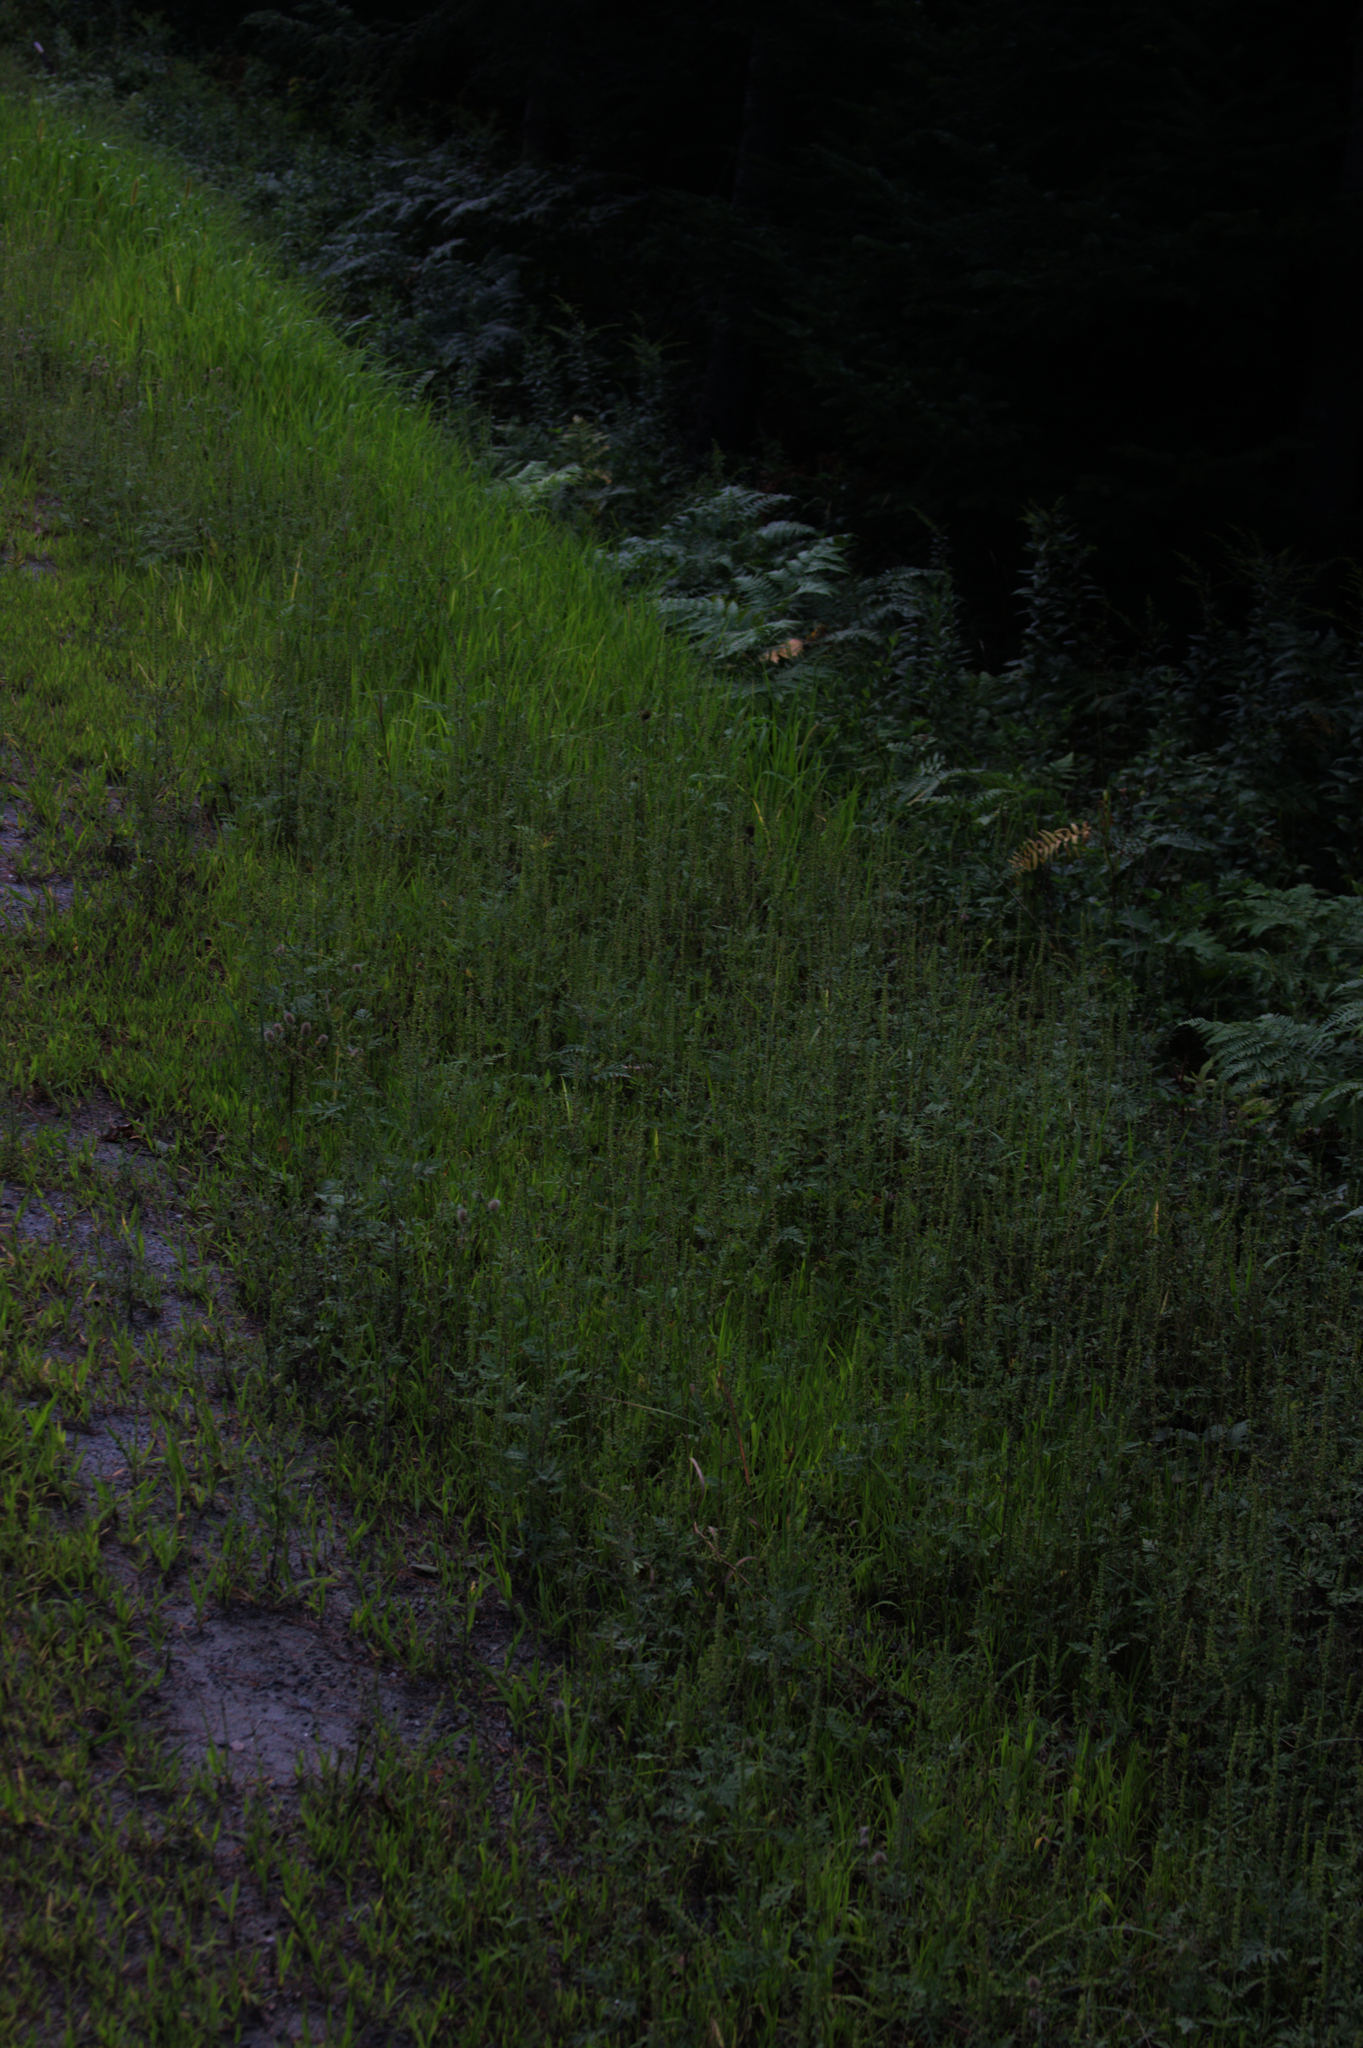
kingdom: Plantae
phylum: Tracheophyta
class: Magnoliopsida
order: Asterales
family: Asteraceae
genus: Ambrosia
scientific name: Ambrosia artemisiifolia
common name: Annual ragweed
